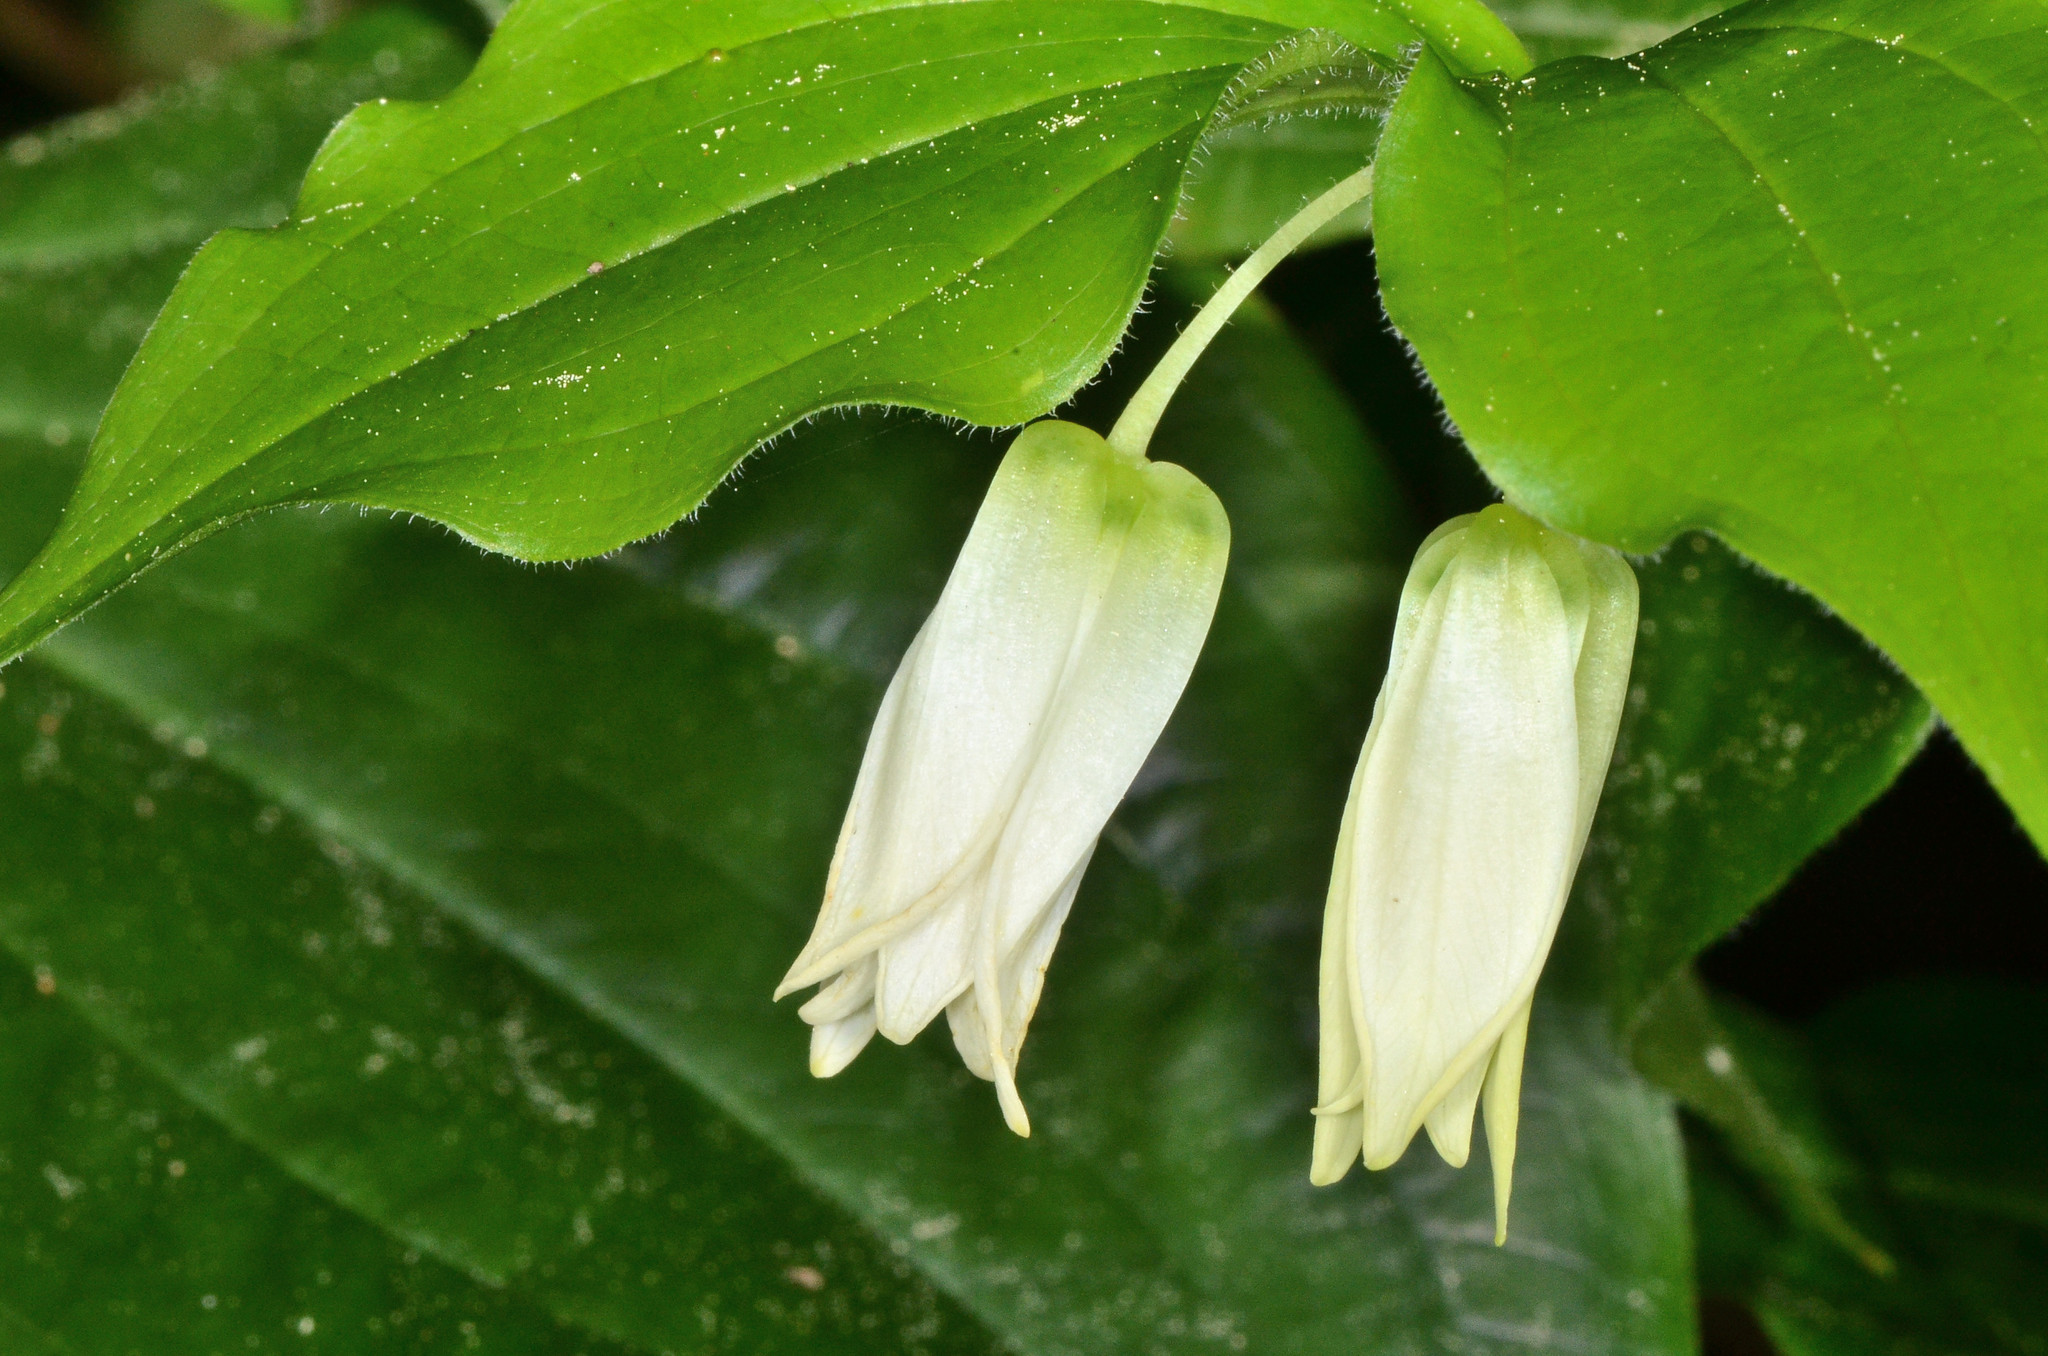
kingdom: Plantae
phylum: Tracheophyta
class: Liliopsida
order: Liliales
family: Liliaceae
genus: Prosartes
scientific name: Prosartes smithii
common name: Fairy-lantern
